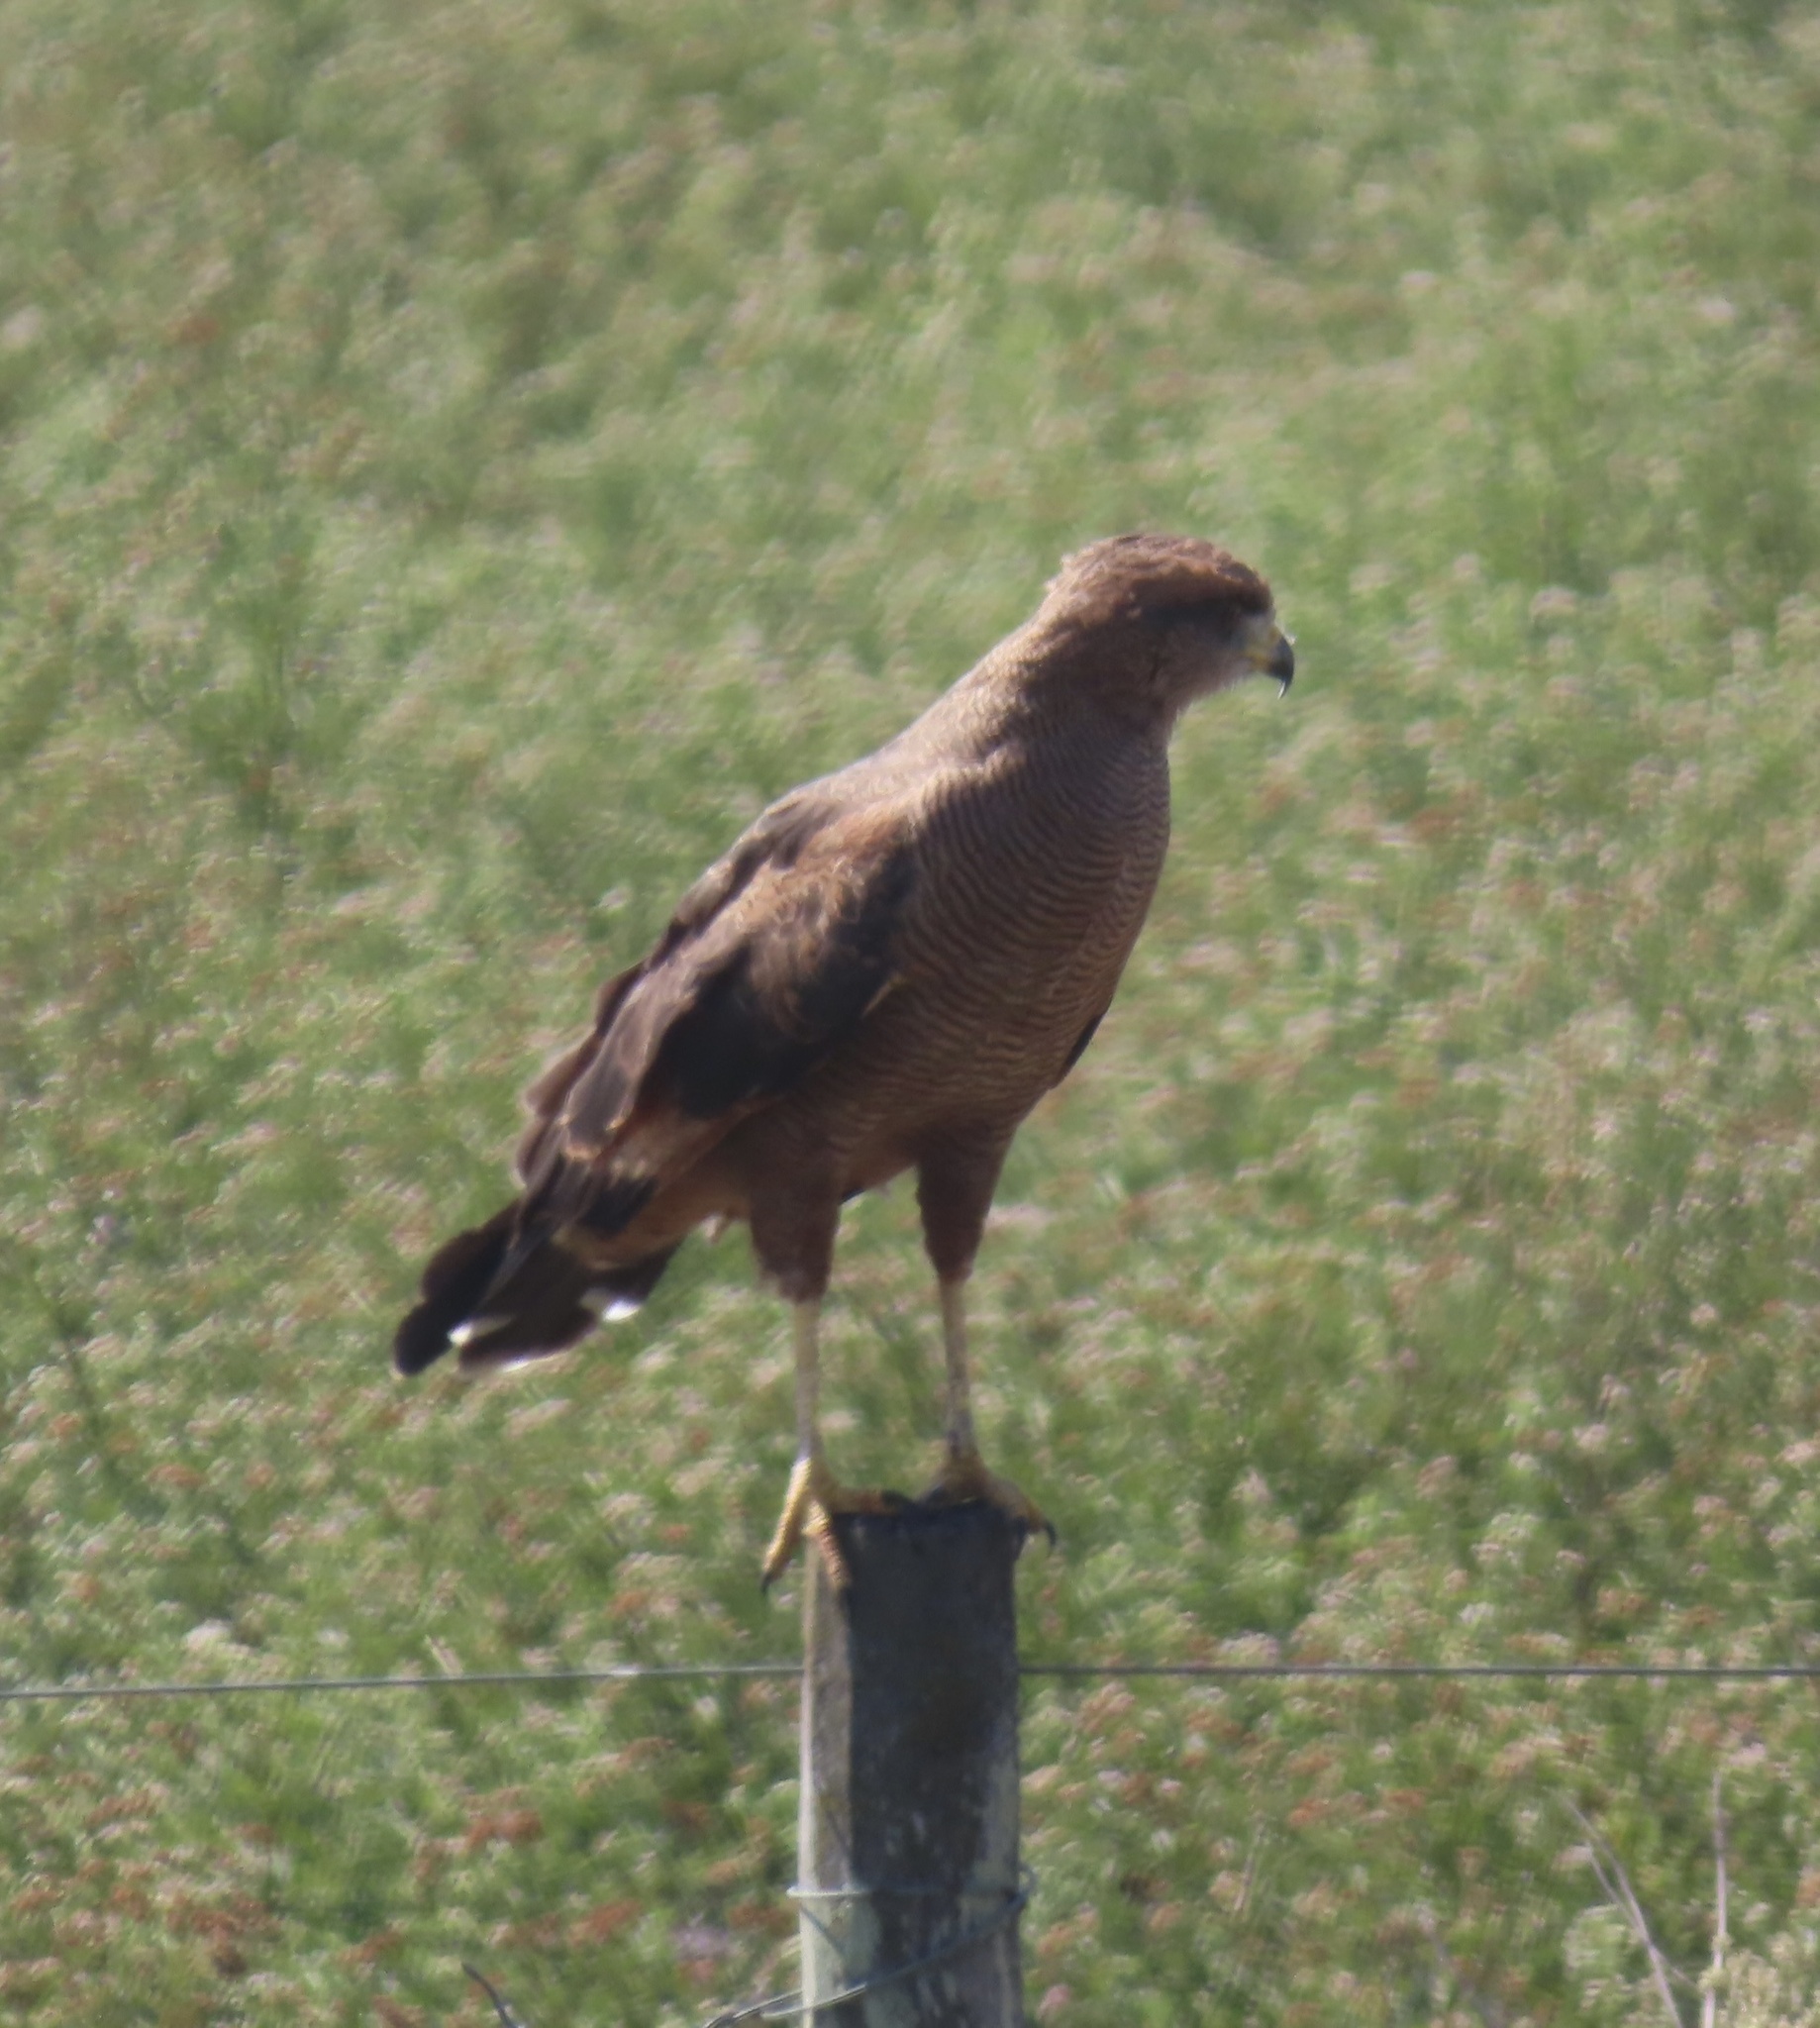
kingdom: Animalia
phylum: Chordata
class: Aves
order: Accipitriformes
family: Accipitridae
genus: Buteogallus
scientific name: Buteogallus meridionalis
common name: Savanna hawk
